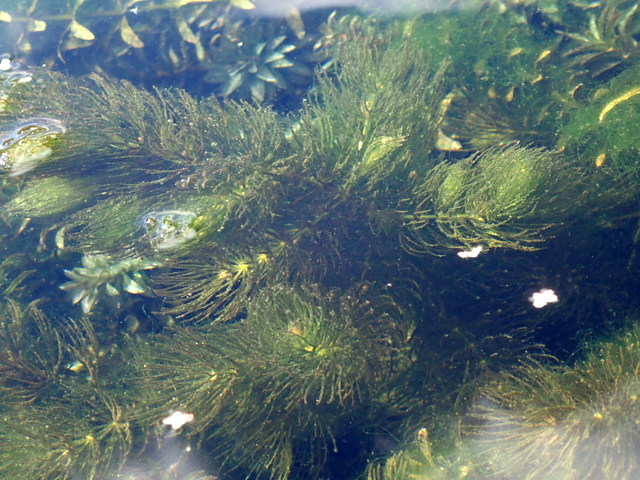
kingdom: Plantae
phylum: Tracheophyta
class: Magnoliopsida
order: Ceratophyllales
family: Ceratophyllaceae
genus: Ceratophyllum
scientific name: Ceratophyllum demersum
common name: Rigid hornwort
